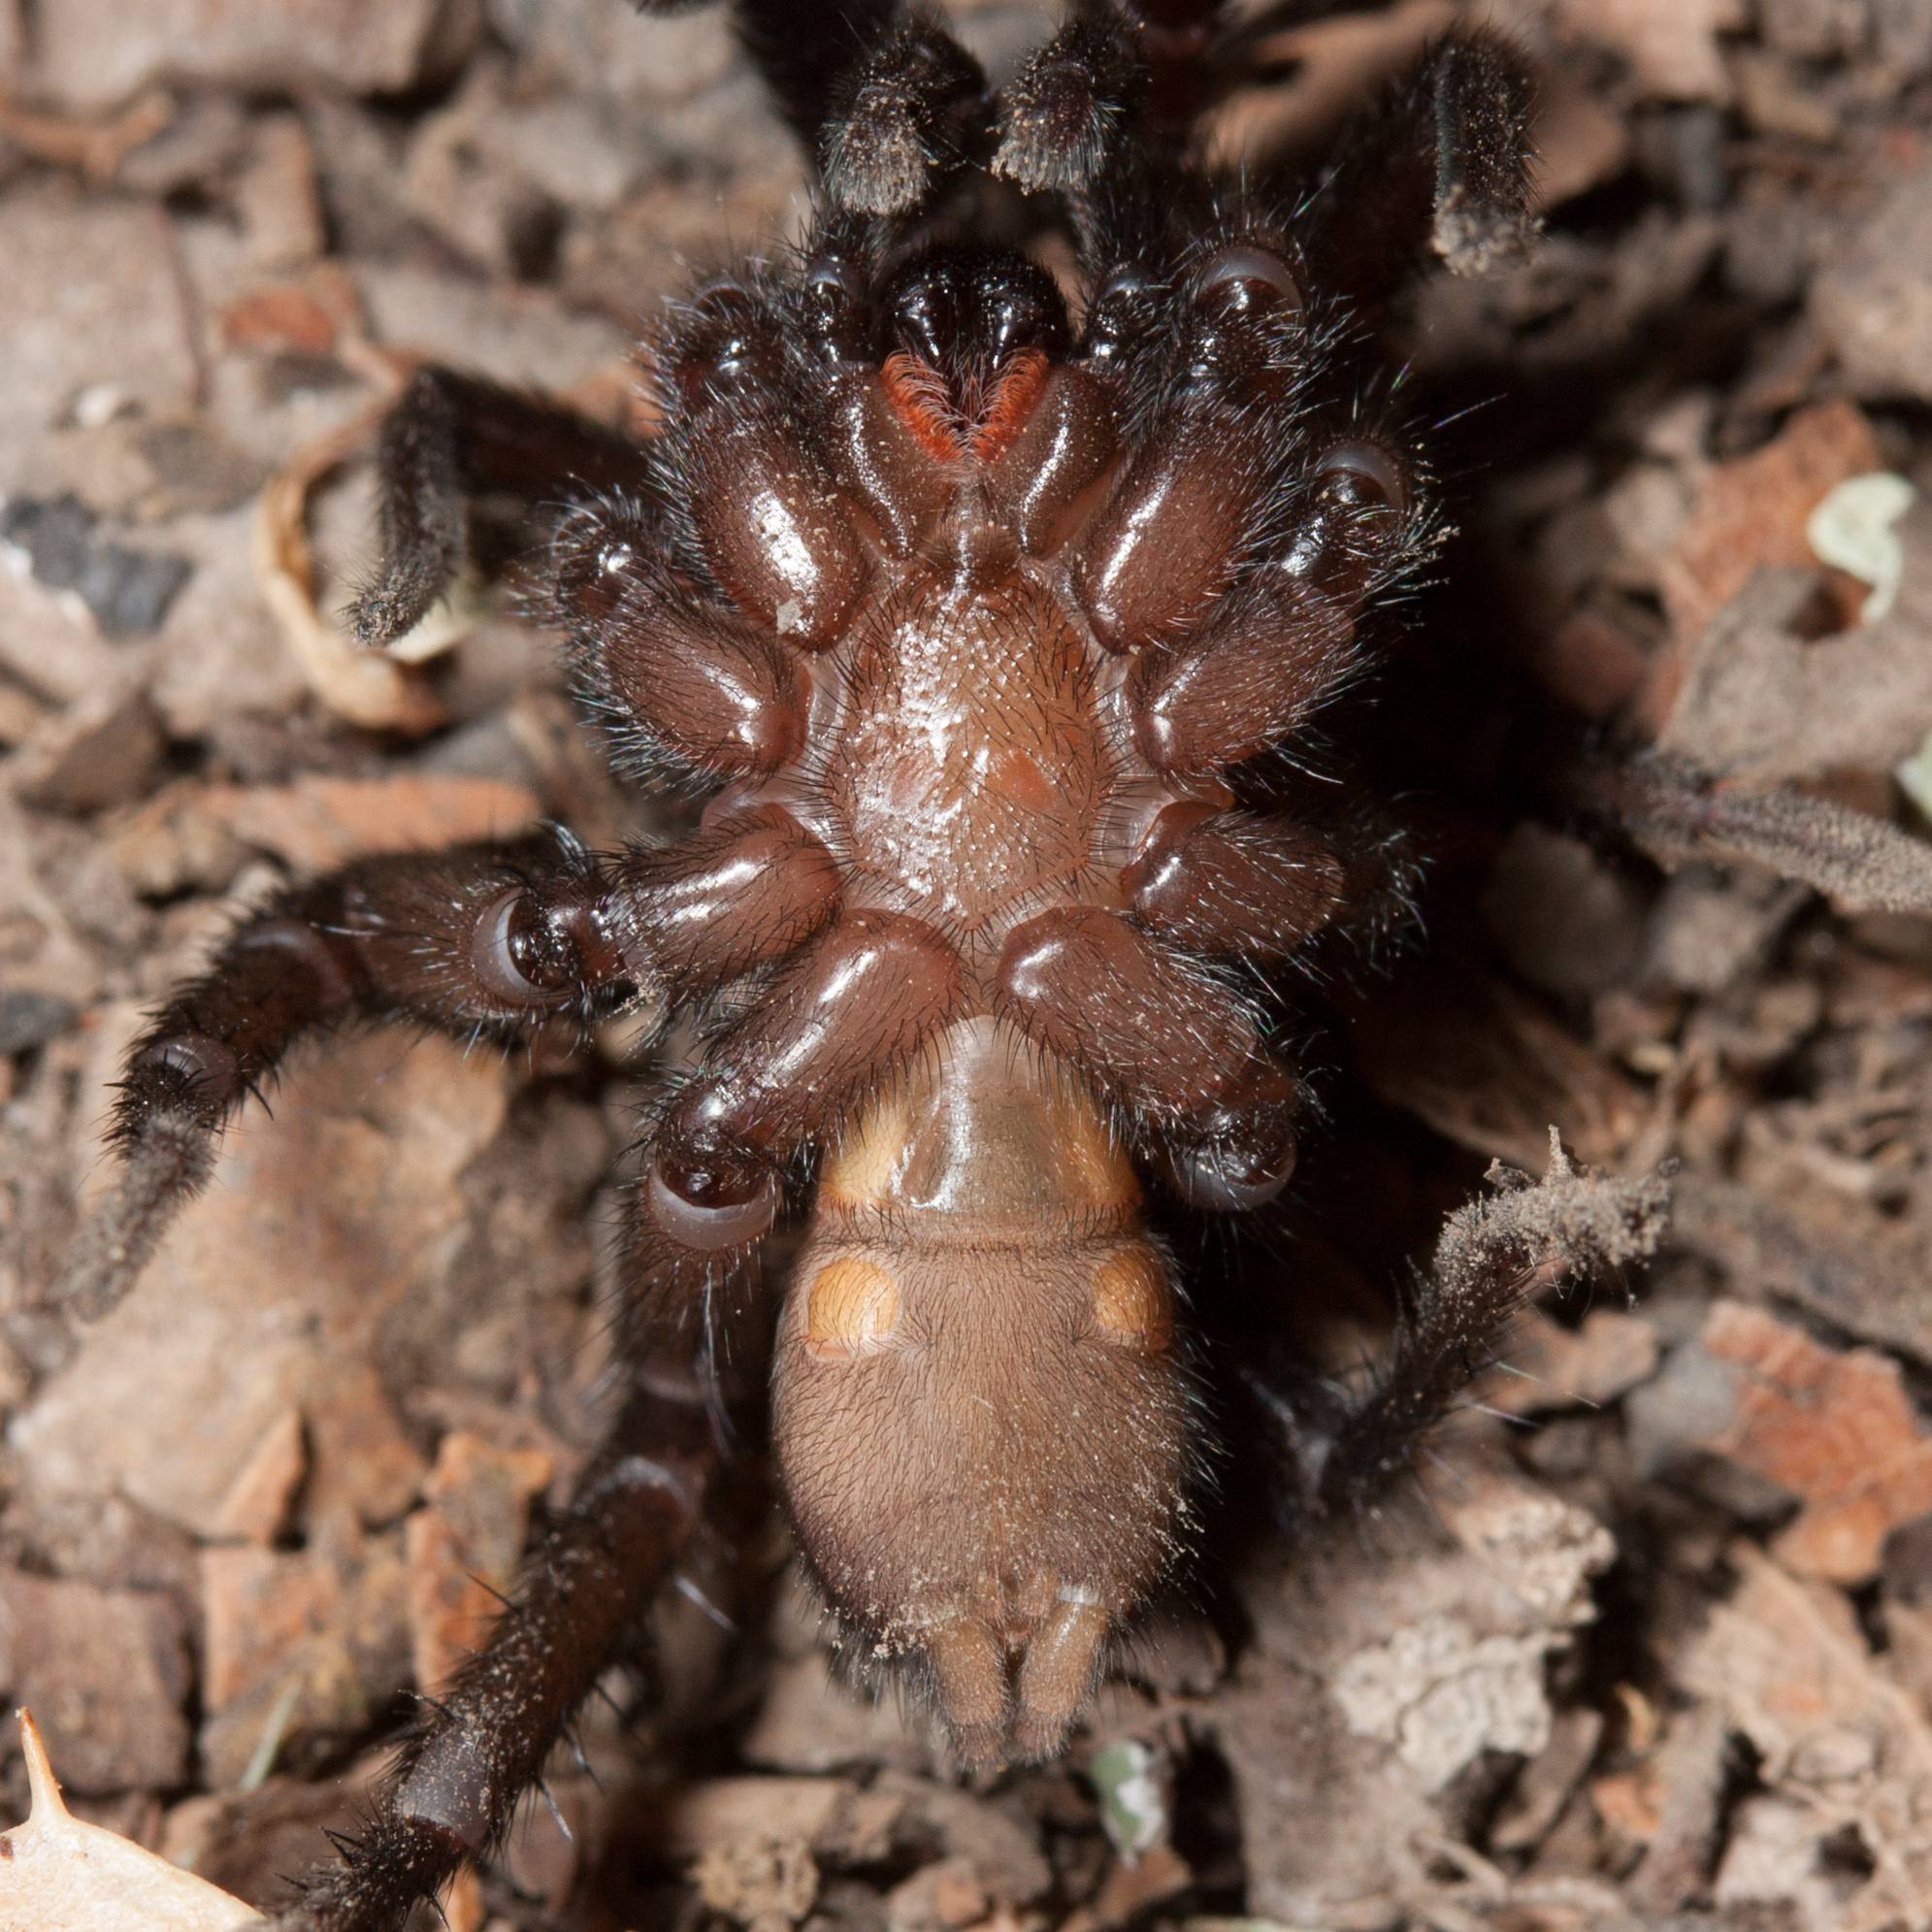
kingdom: Animalia
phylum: Arthropoda
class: Arachnida
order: Araneae
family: Euctenizidae
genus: Promyrmekiaphila
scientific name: Promyrmekiaphila clathrata
